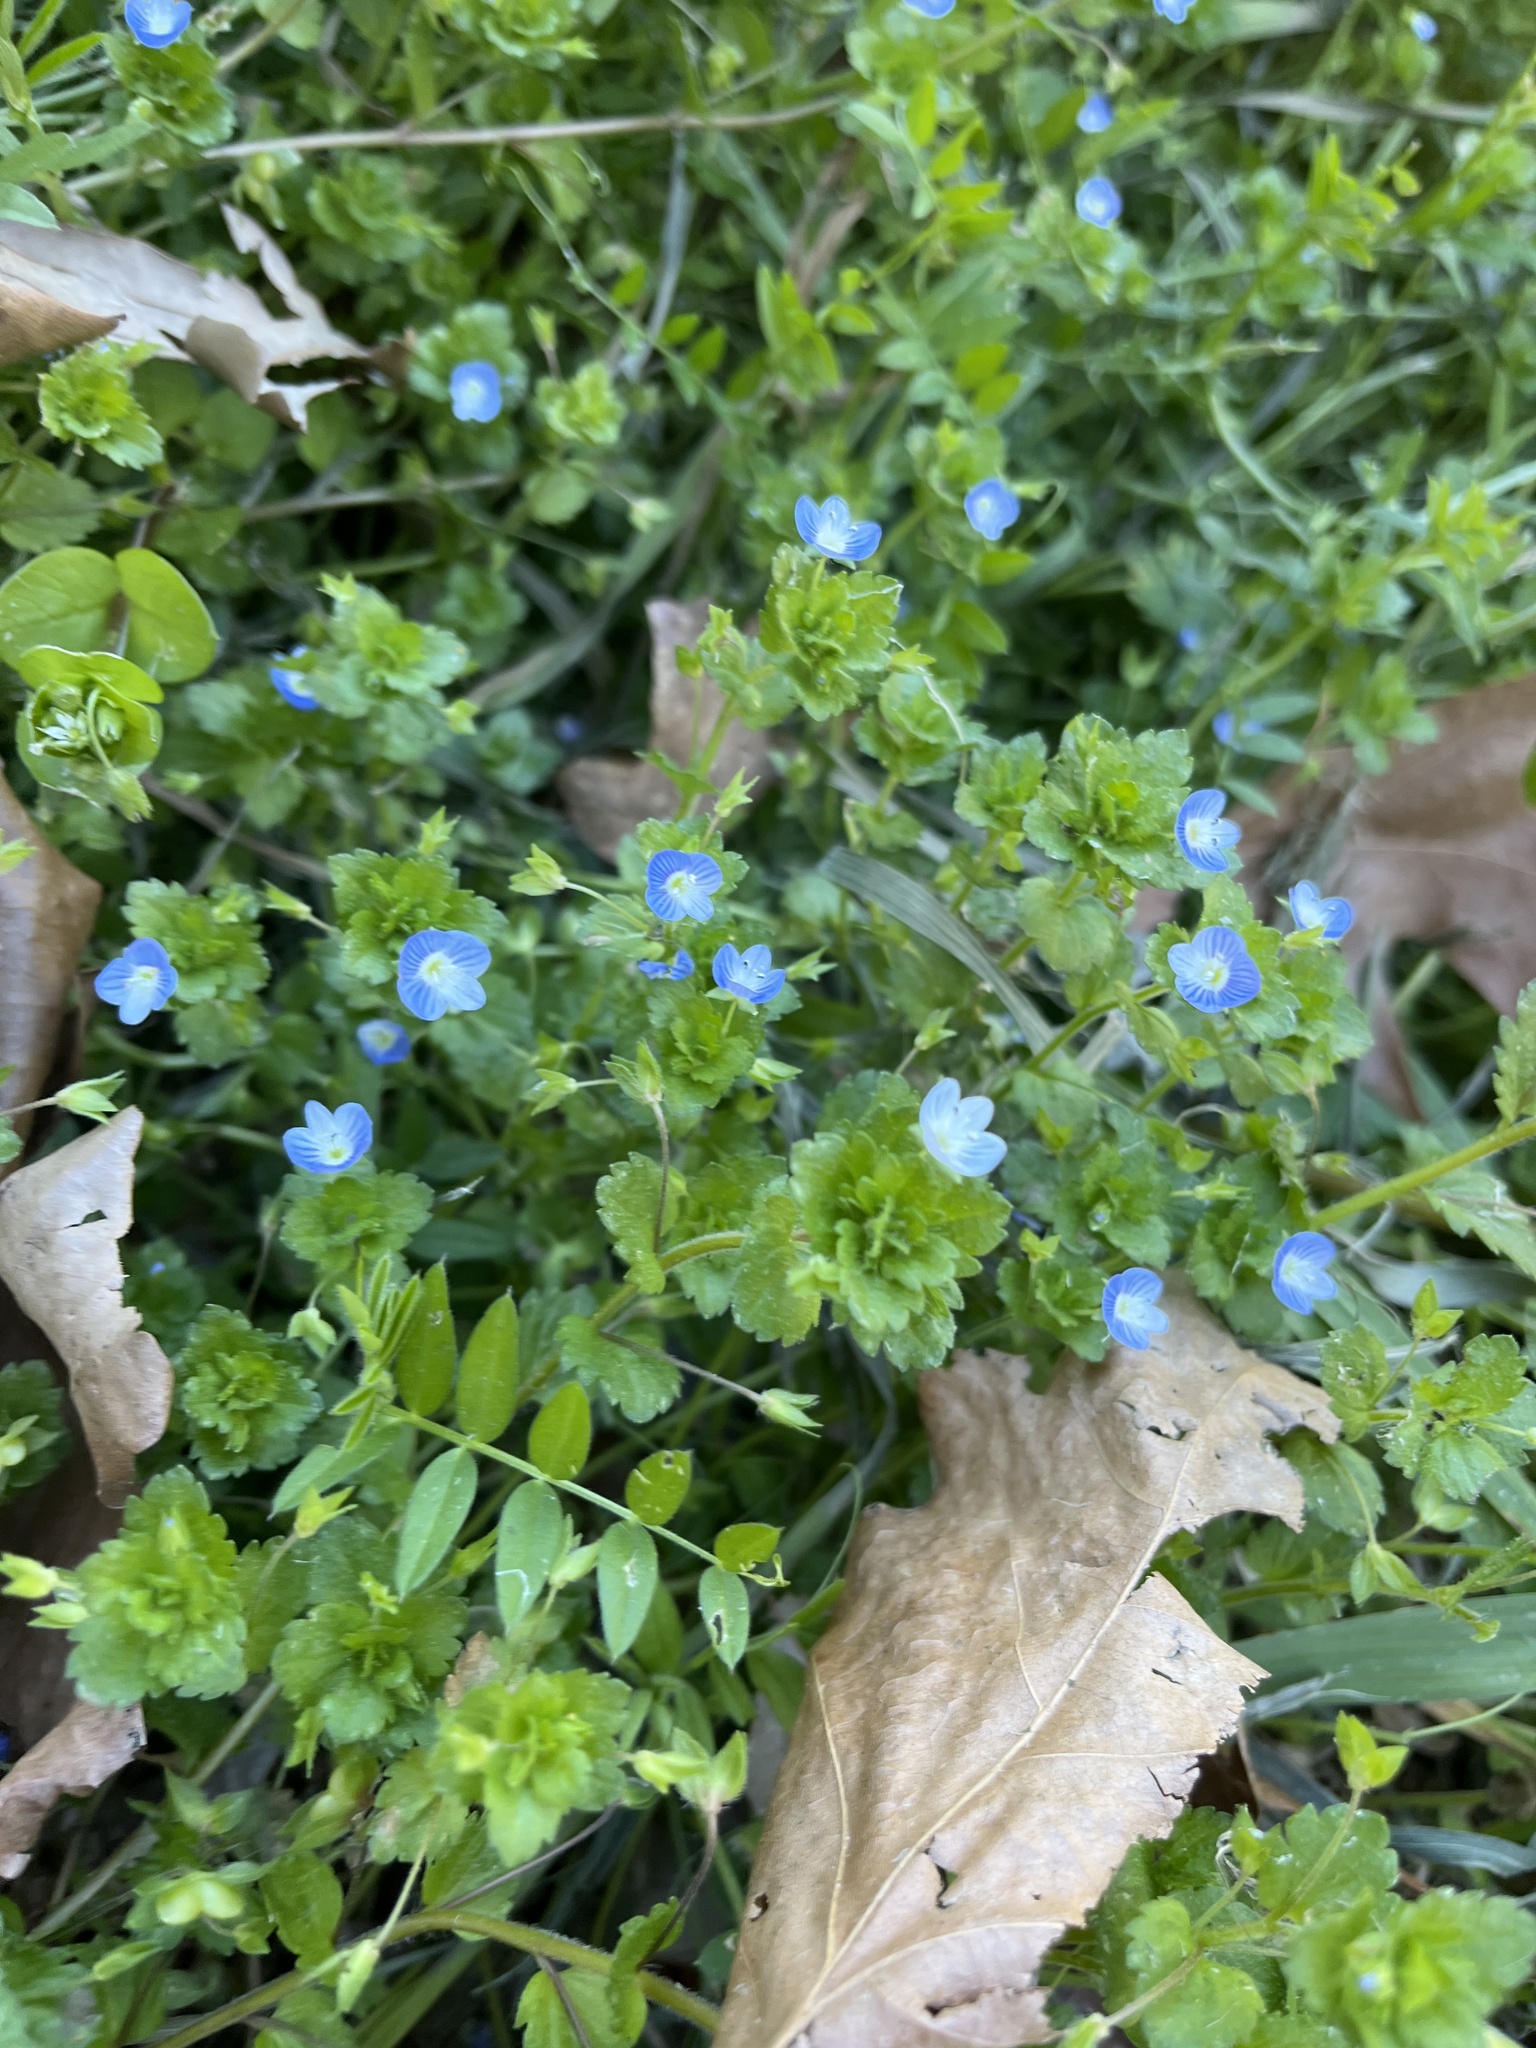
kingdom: Plantae
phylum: Tracheophyta
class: Magnoliopsida
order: Lamiales
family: Plantaginaceae
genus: Veronica
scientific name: Veronica persica
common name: Common field-speedwell
